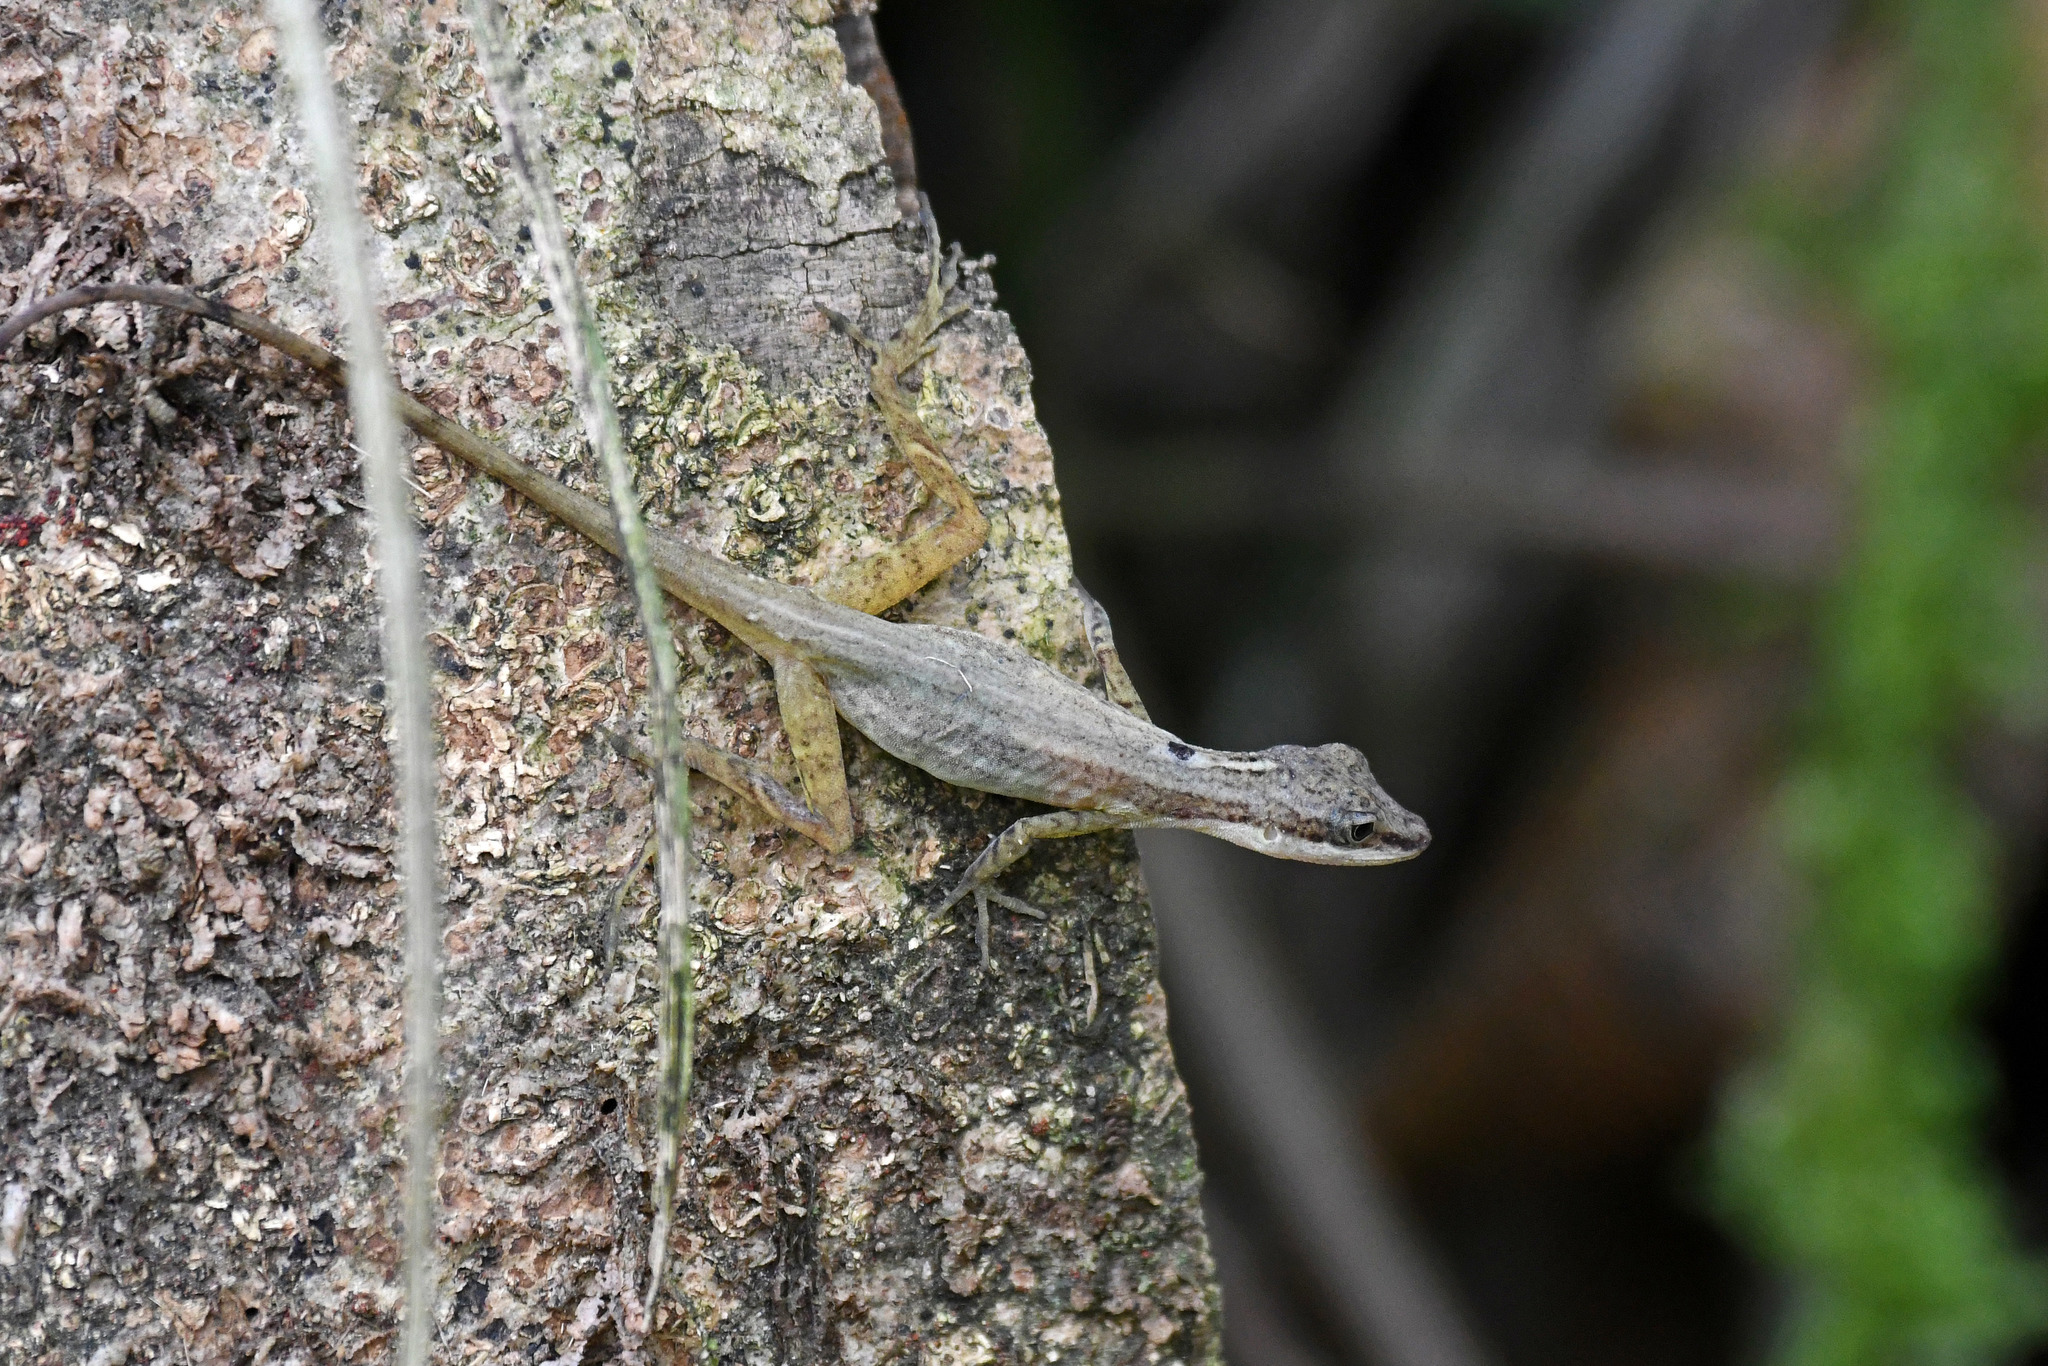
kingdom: Animalia
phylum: Chordata
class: Squamata
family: Dactyloidae
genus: Anolis
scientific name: Anolis limifrons
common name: Border anole
